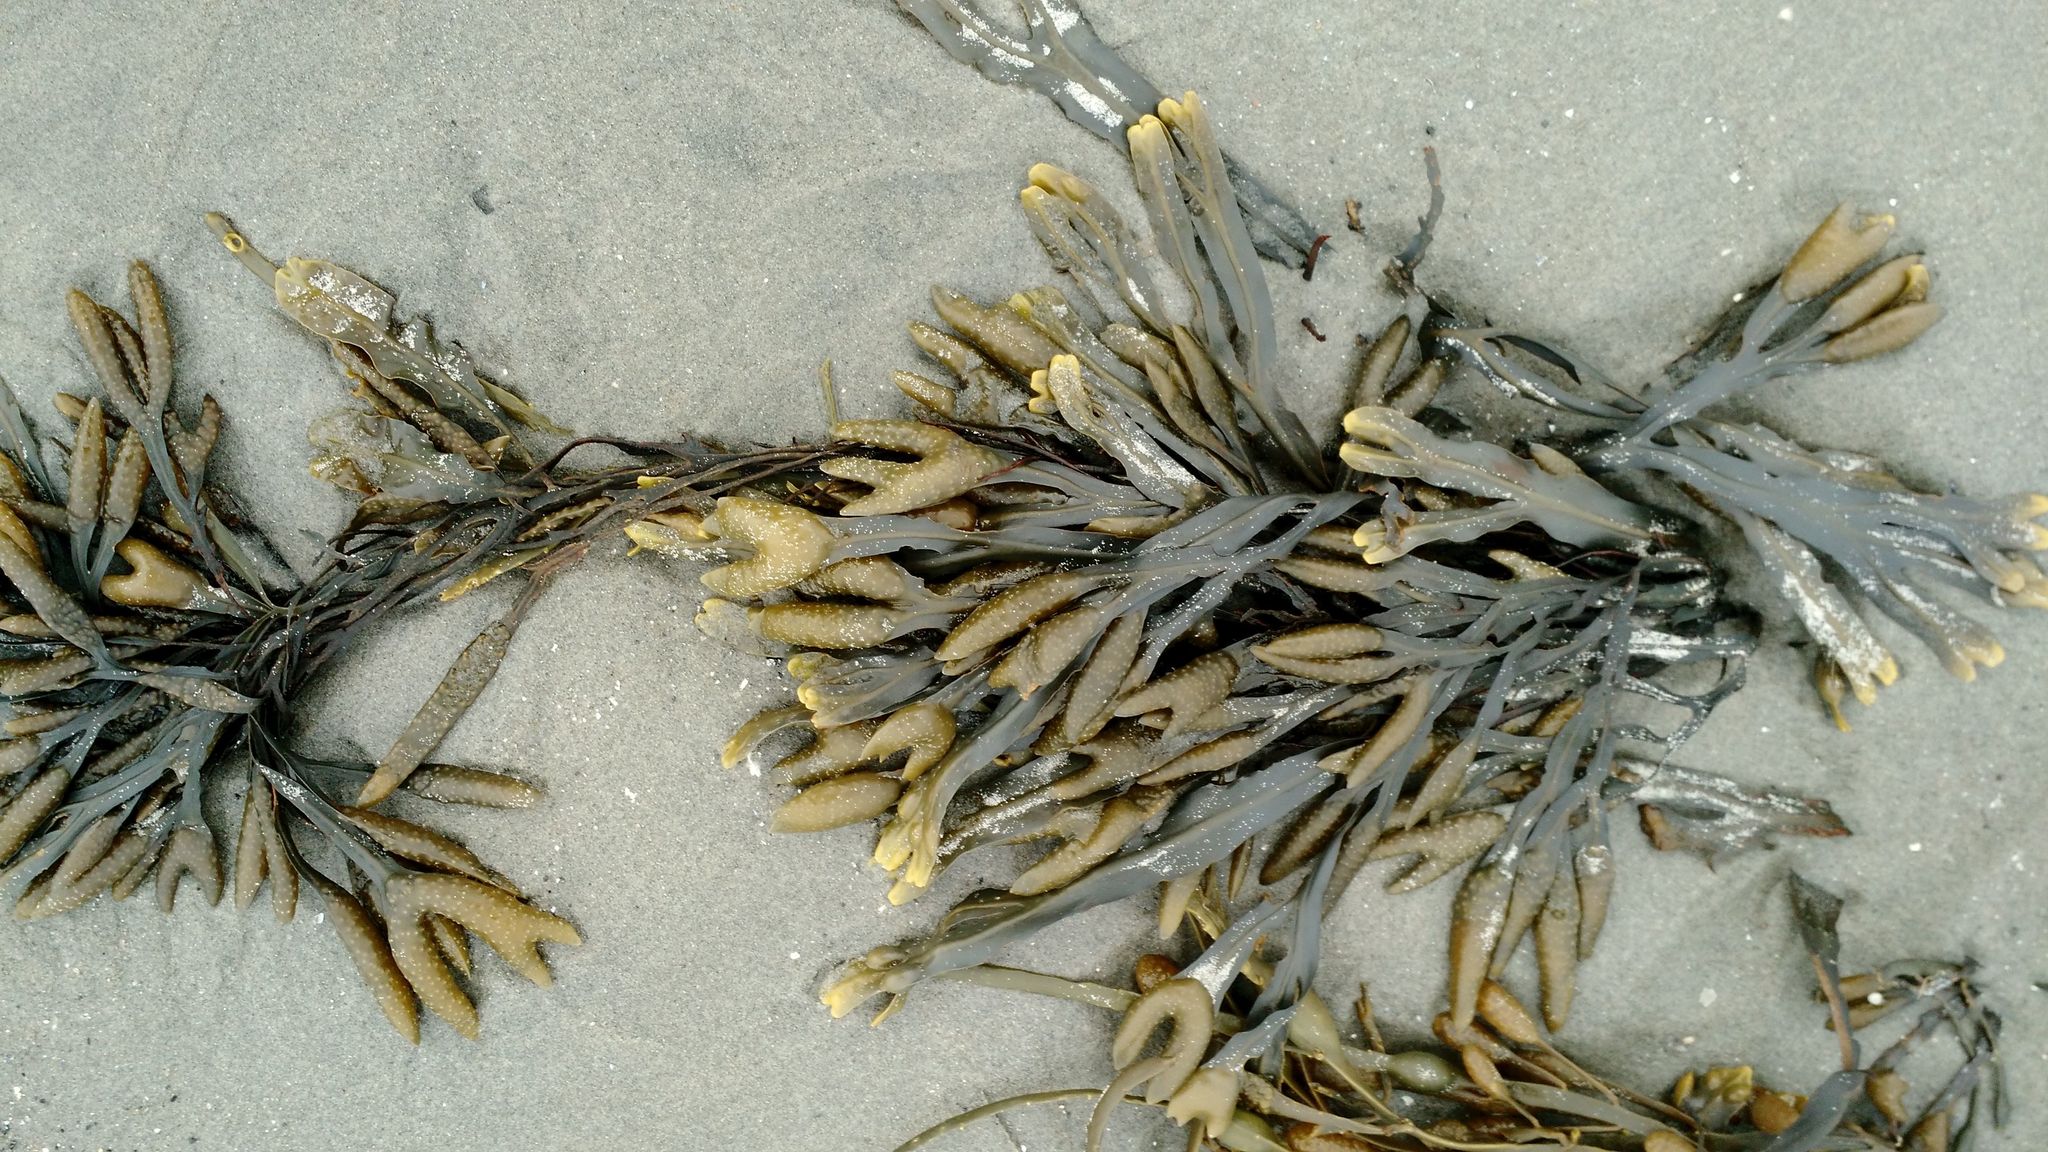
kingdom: Chromista
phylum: Ochrophyta
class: Phaeophyceae
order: Fucales
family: Fucaceae
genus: Fucus
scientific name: Fucus distichus
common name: Rockweed
